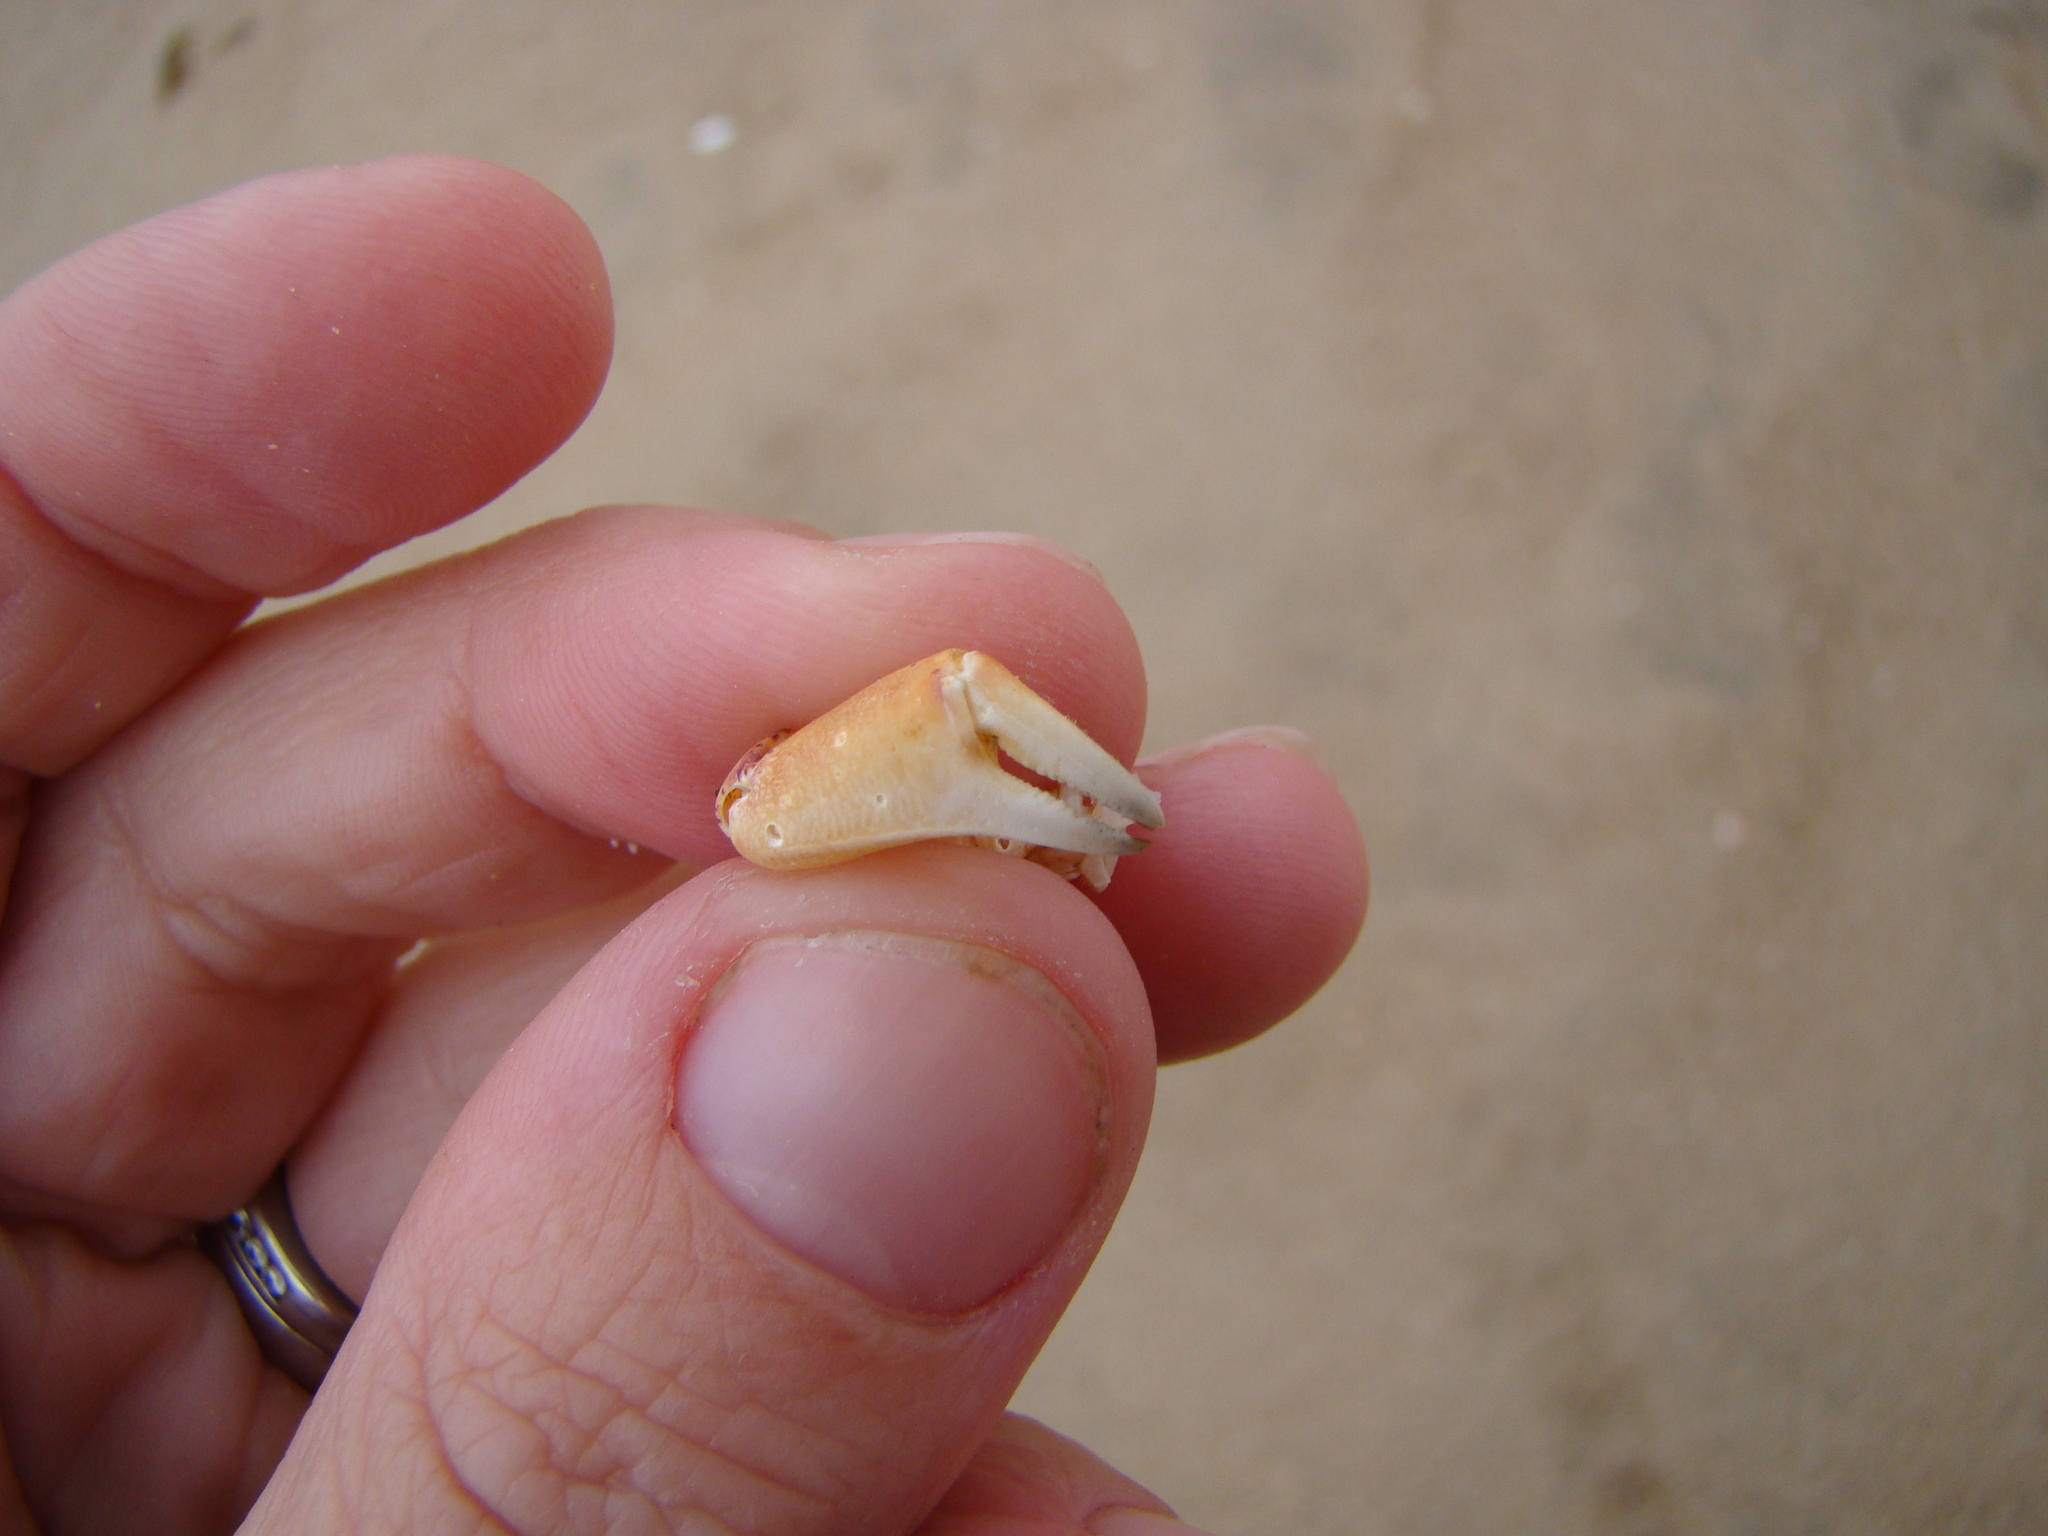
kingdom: Animalia
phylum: Arthropoda
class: Malacostraca
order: Decapoda
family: Macrophthalmidae
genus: Hemiplax
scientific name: Hemiplax hirtipes
